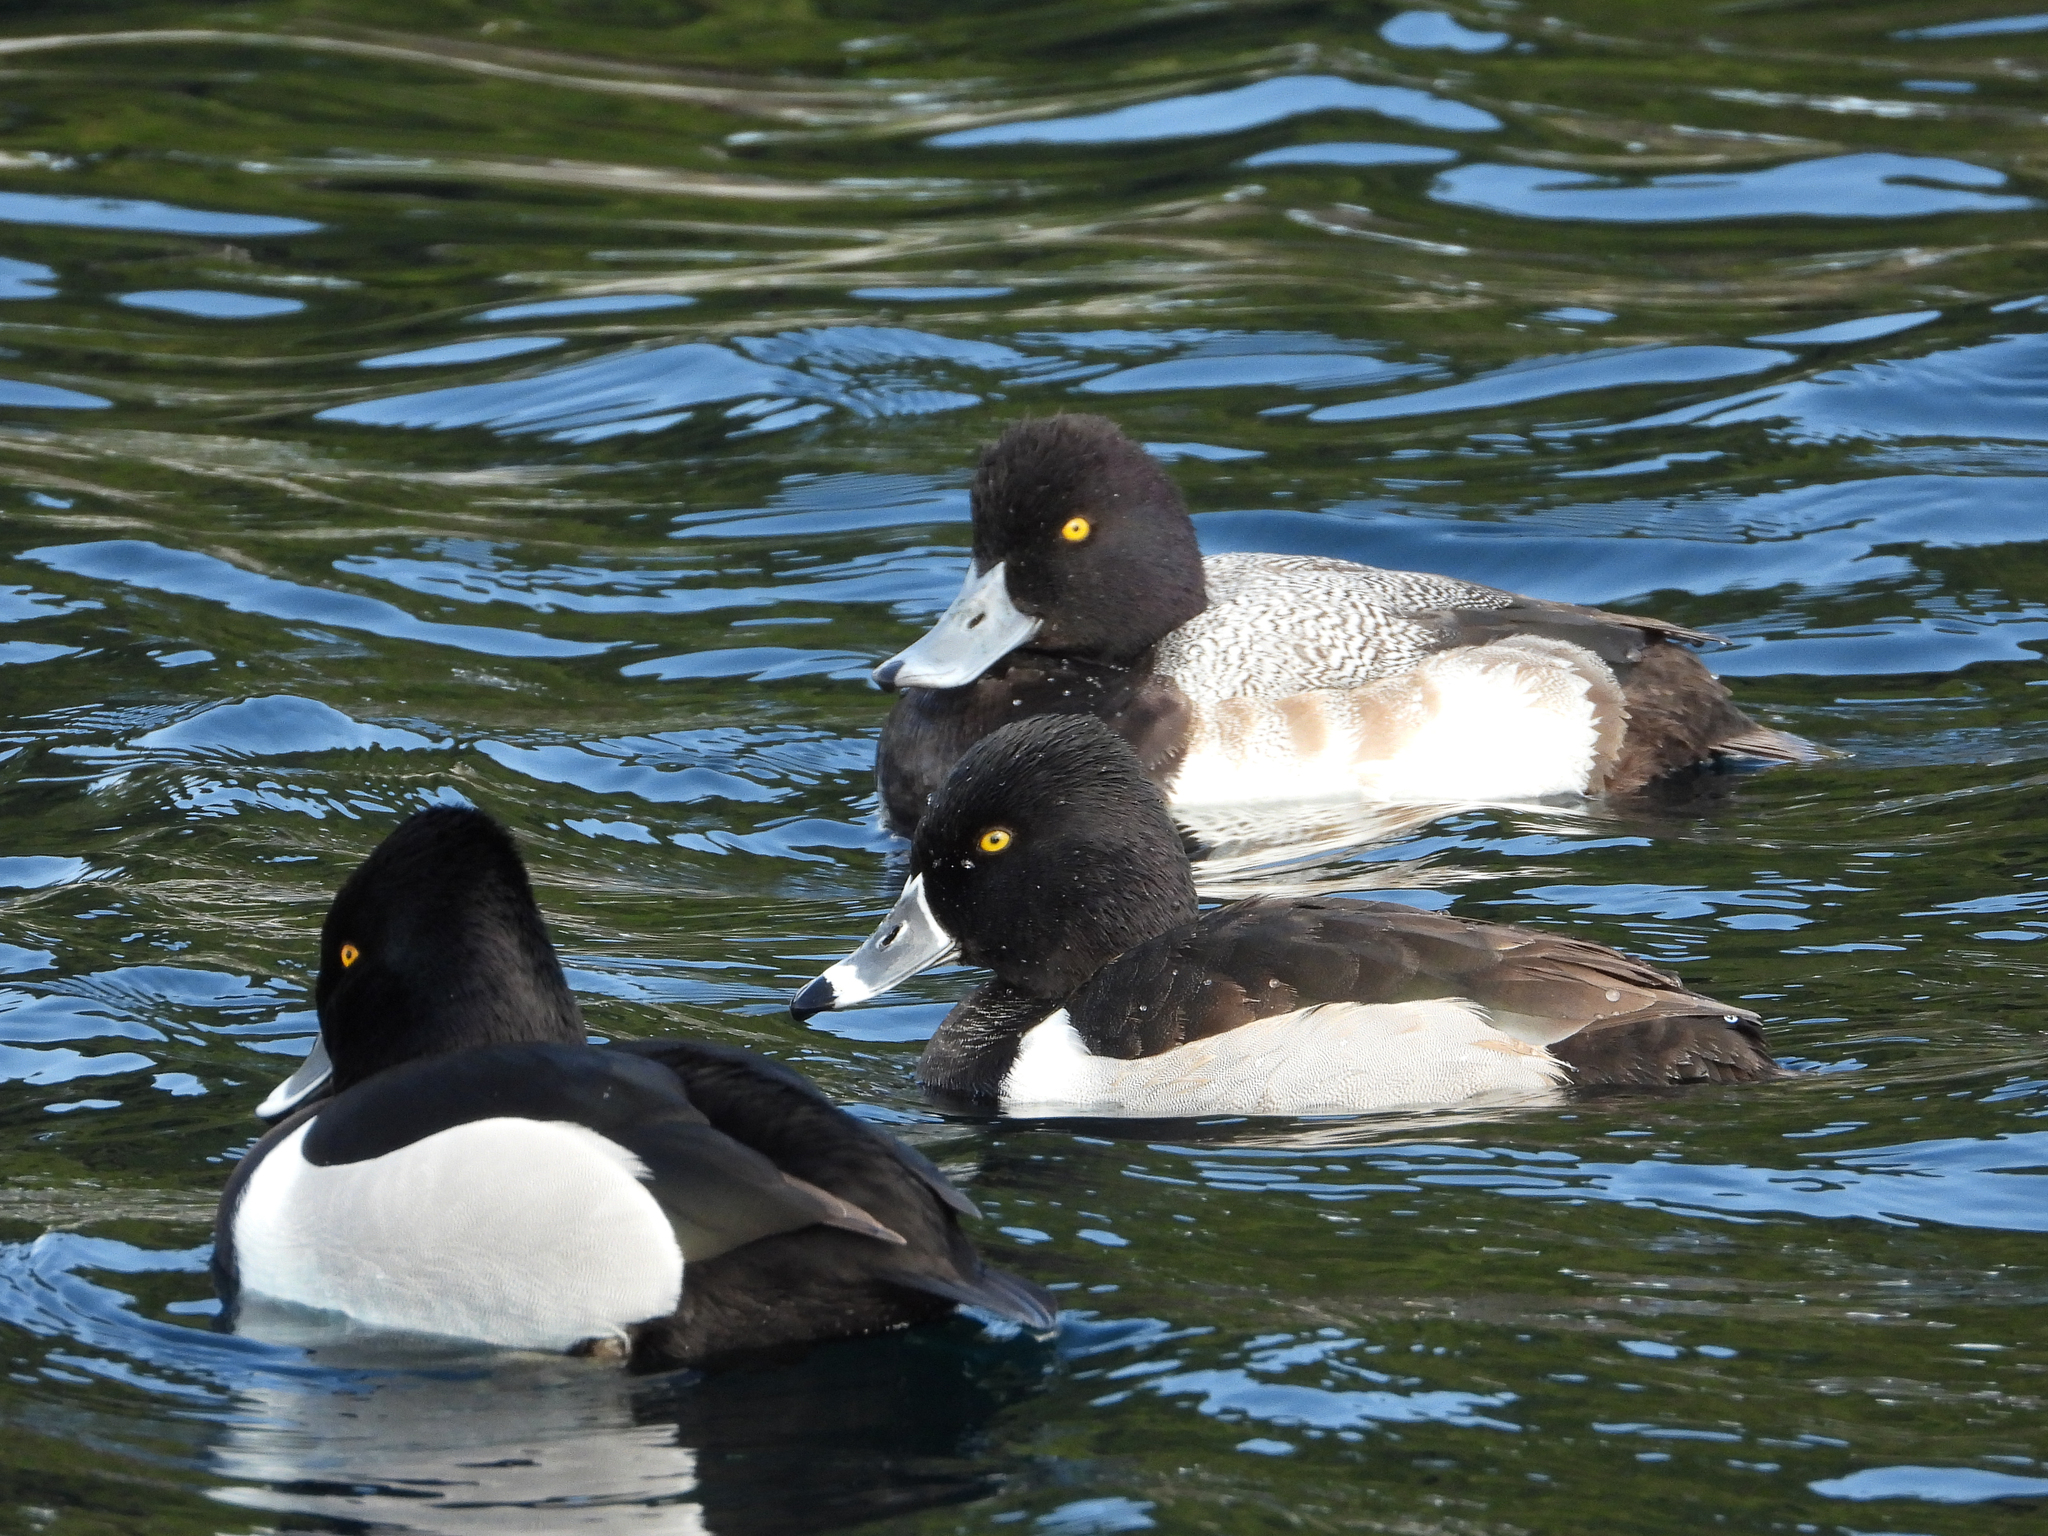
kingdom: Animalia
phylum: Chordata
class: Aves
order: Anseriformes
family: Anatidae
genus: Aythya
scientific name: Aythya collaris
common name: Ring-necked duck
